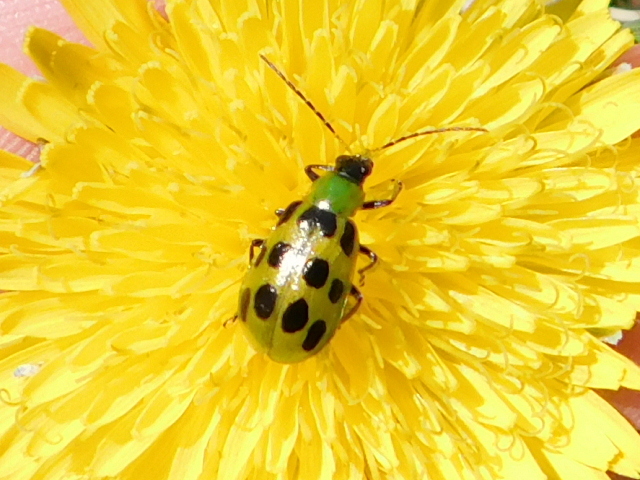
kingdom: Animalia
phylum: Arthropoda
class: Insecta
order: Coleoptera
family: Chrysomelidae
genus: Diabrotica
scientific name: Diabrotica undecimpunctata
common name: Spotted cucumber beetle
